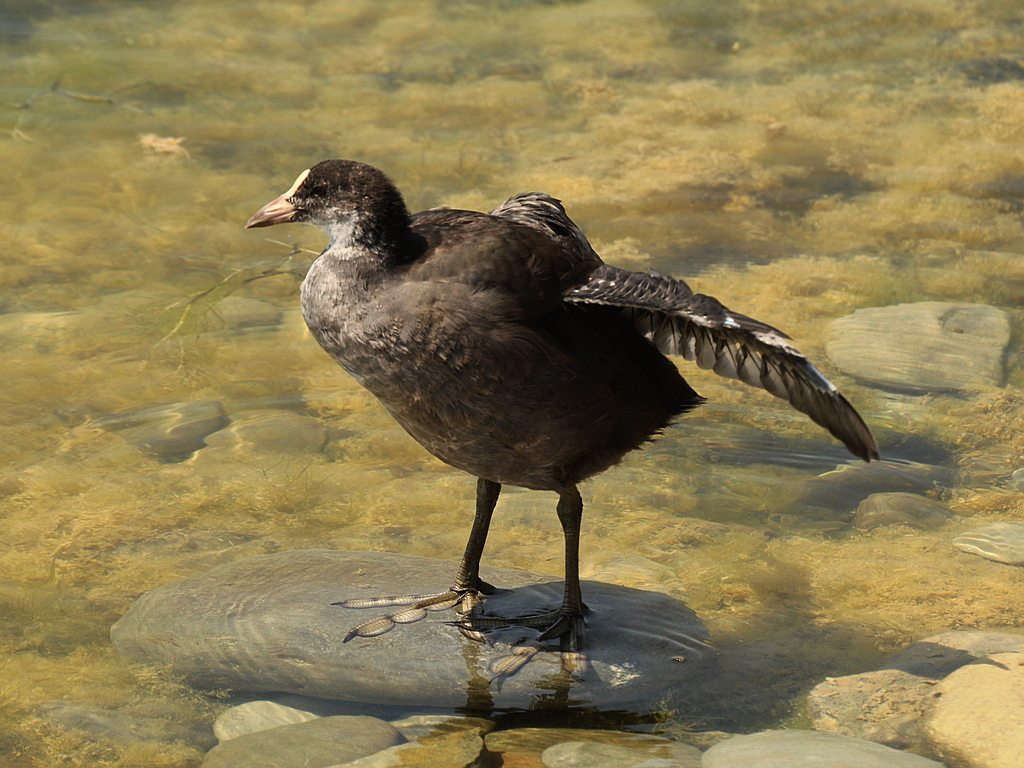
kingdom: Animalia
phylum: Chordata
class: Aves
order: Gruiformes
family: Rallidae
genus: Fulica
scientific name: Fulica atra
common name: Eurasian coot
